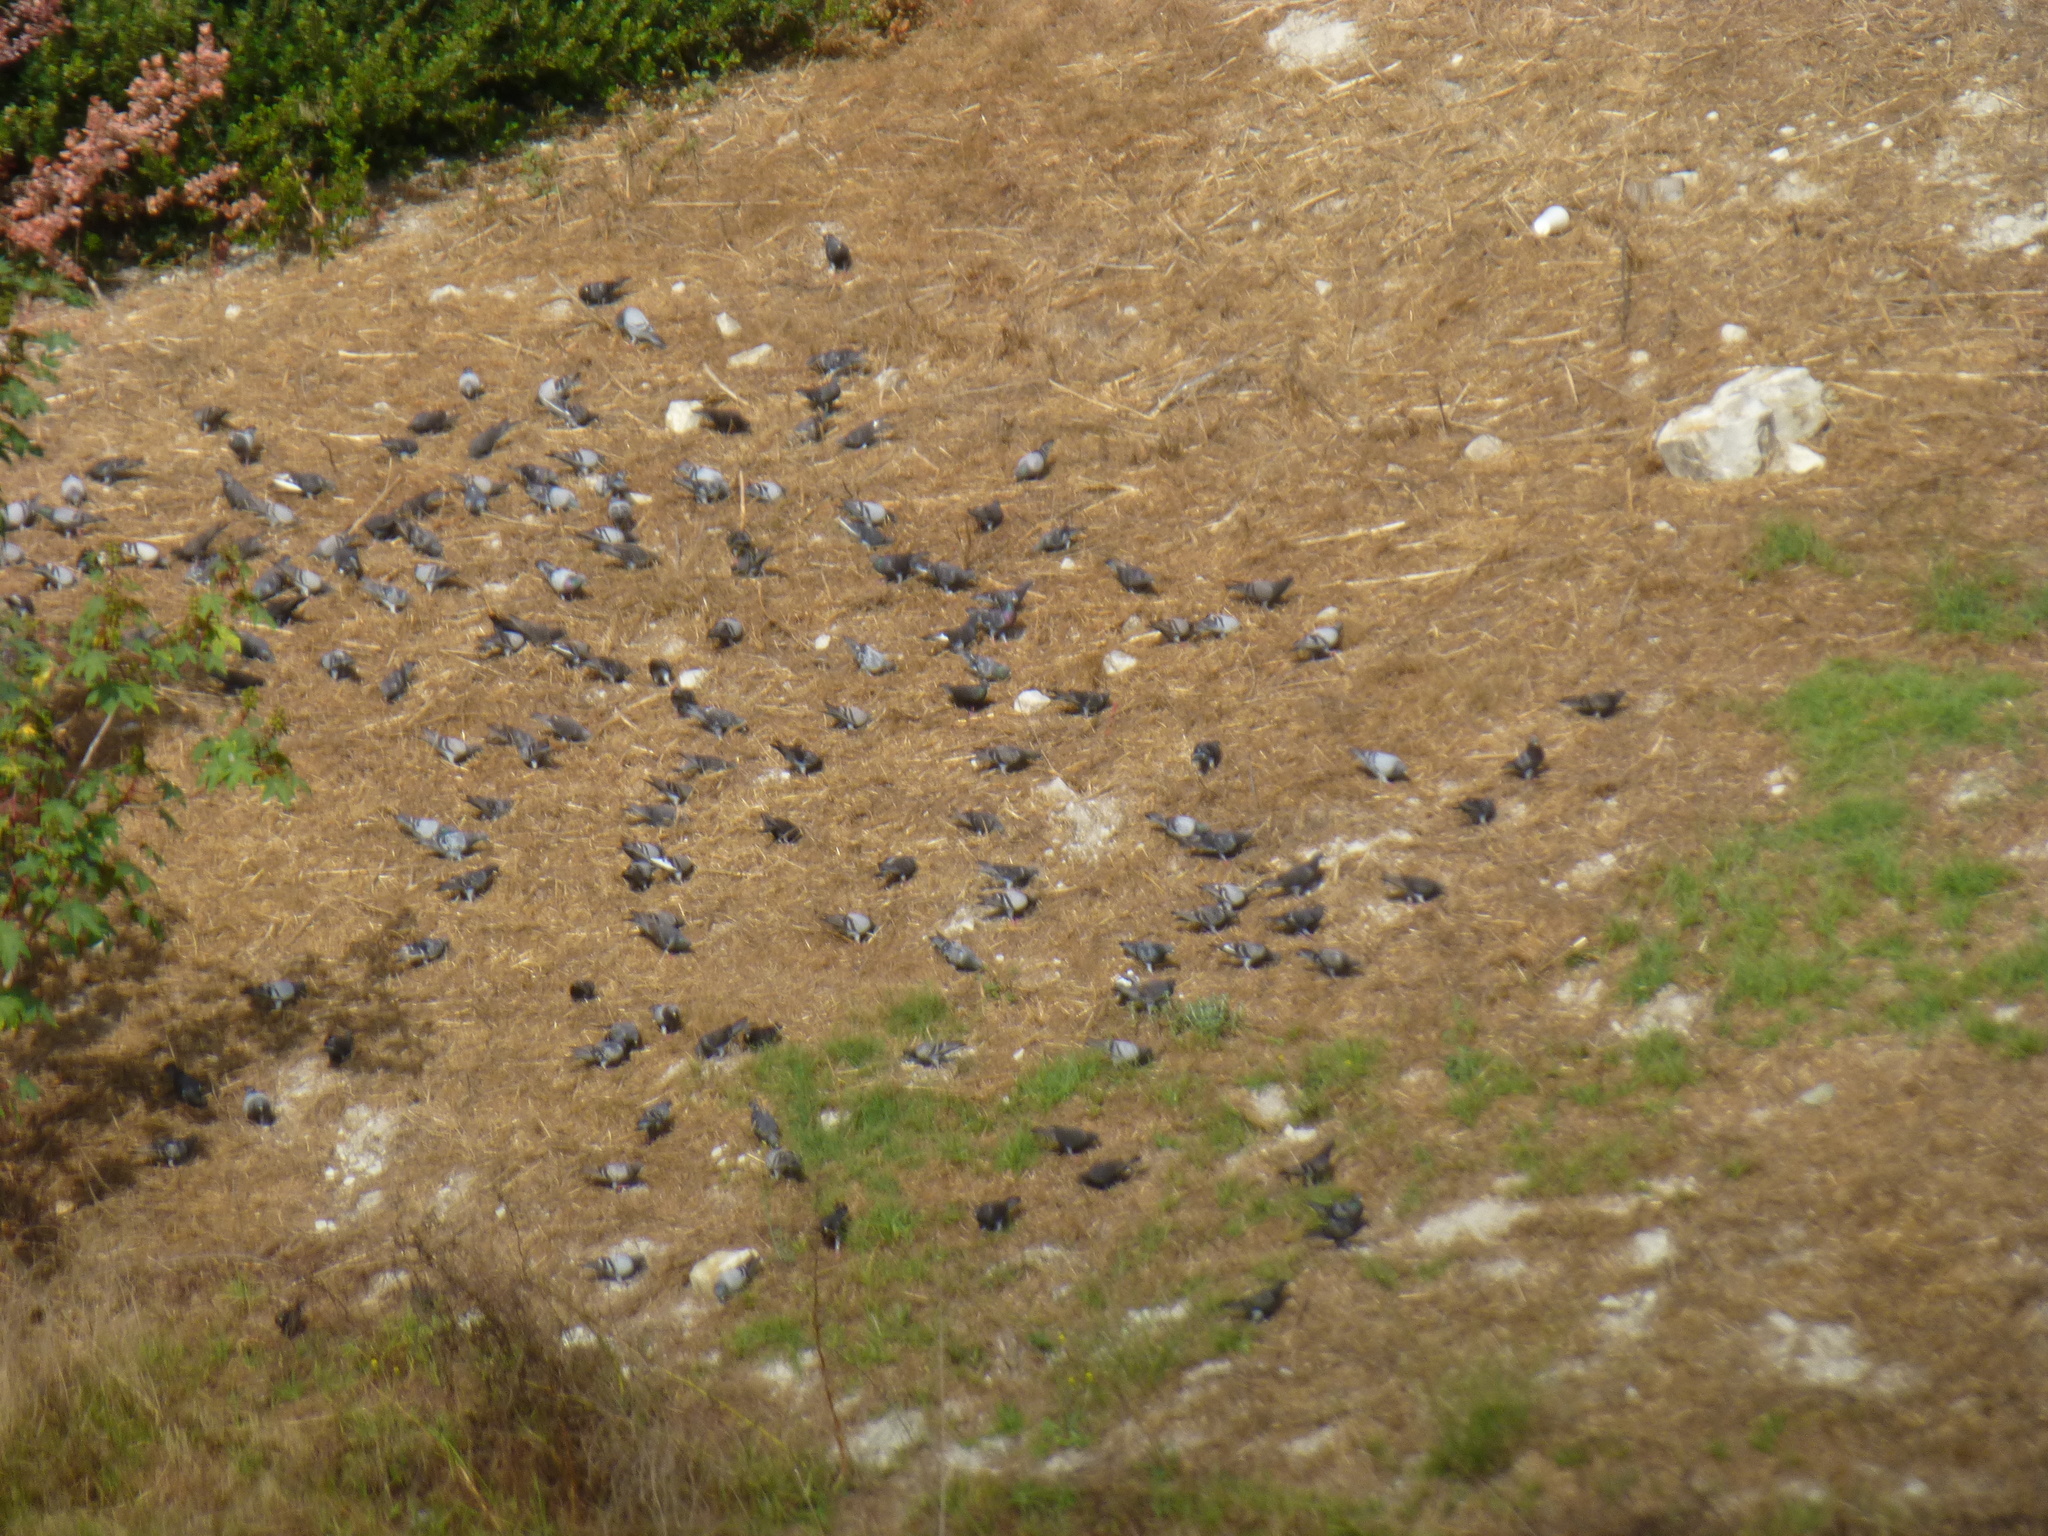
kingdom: Animalia
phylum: Chordata
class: Aves
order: Columbiformes
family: Columbidae
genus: Columba
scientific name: Columba livia
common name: Rock pigeon
